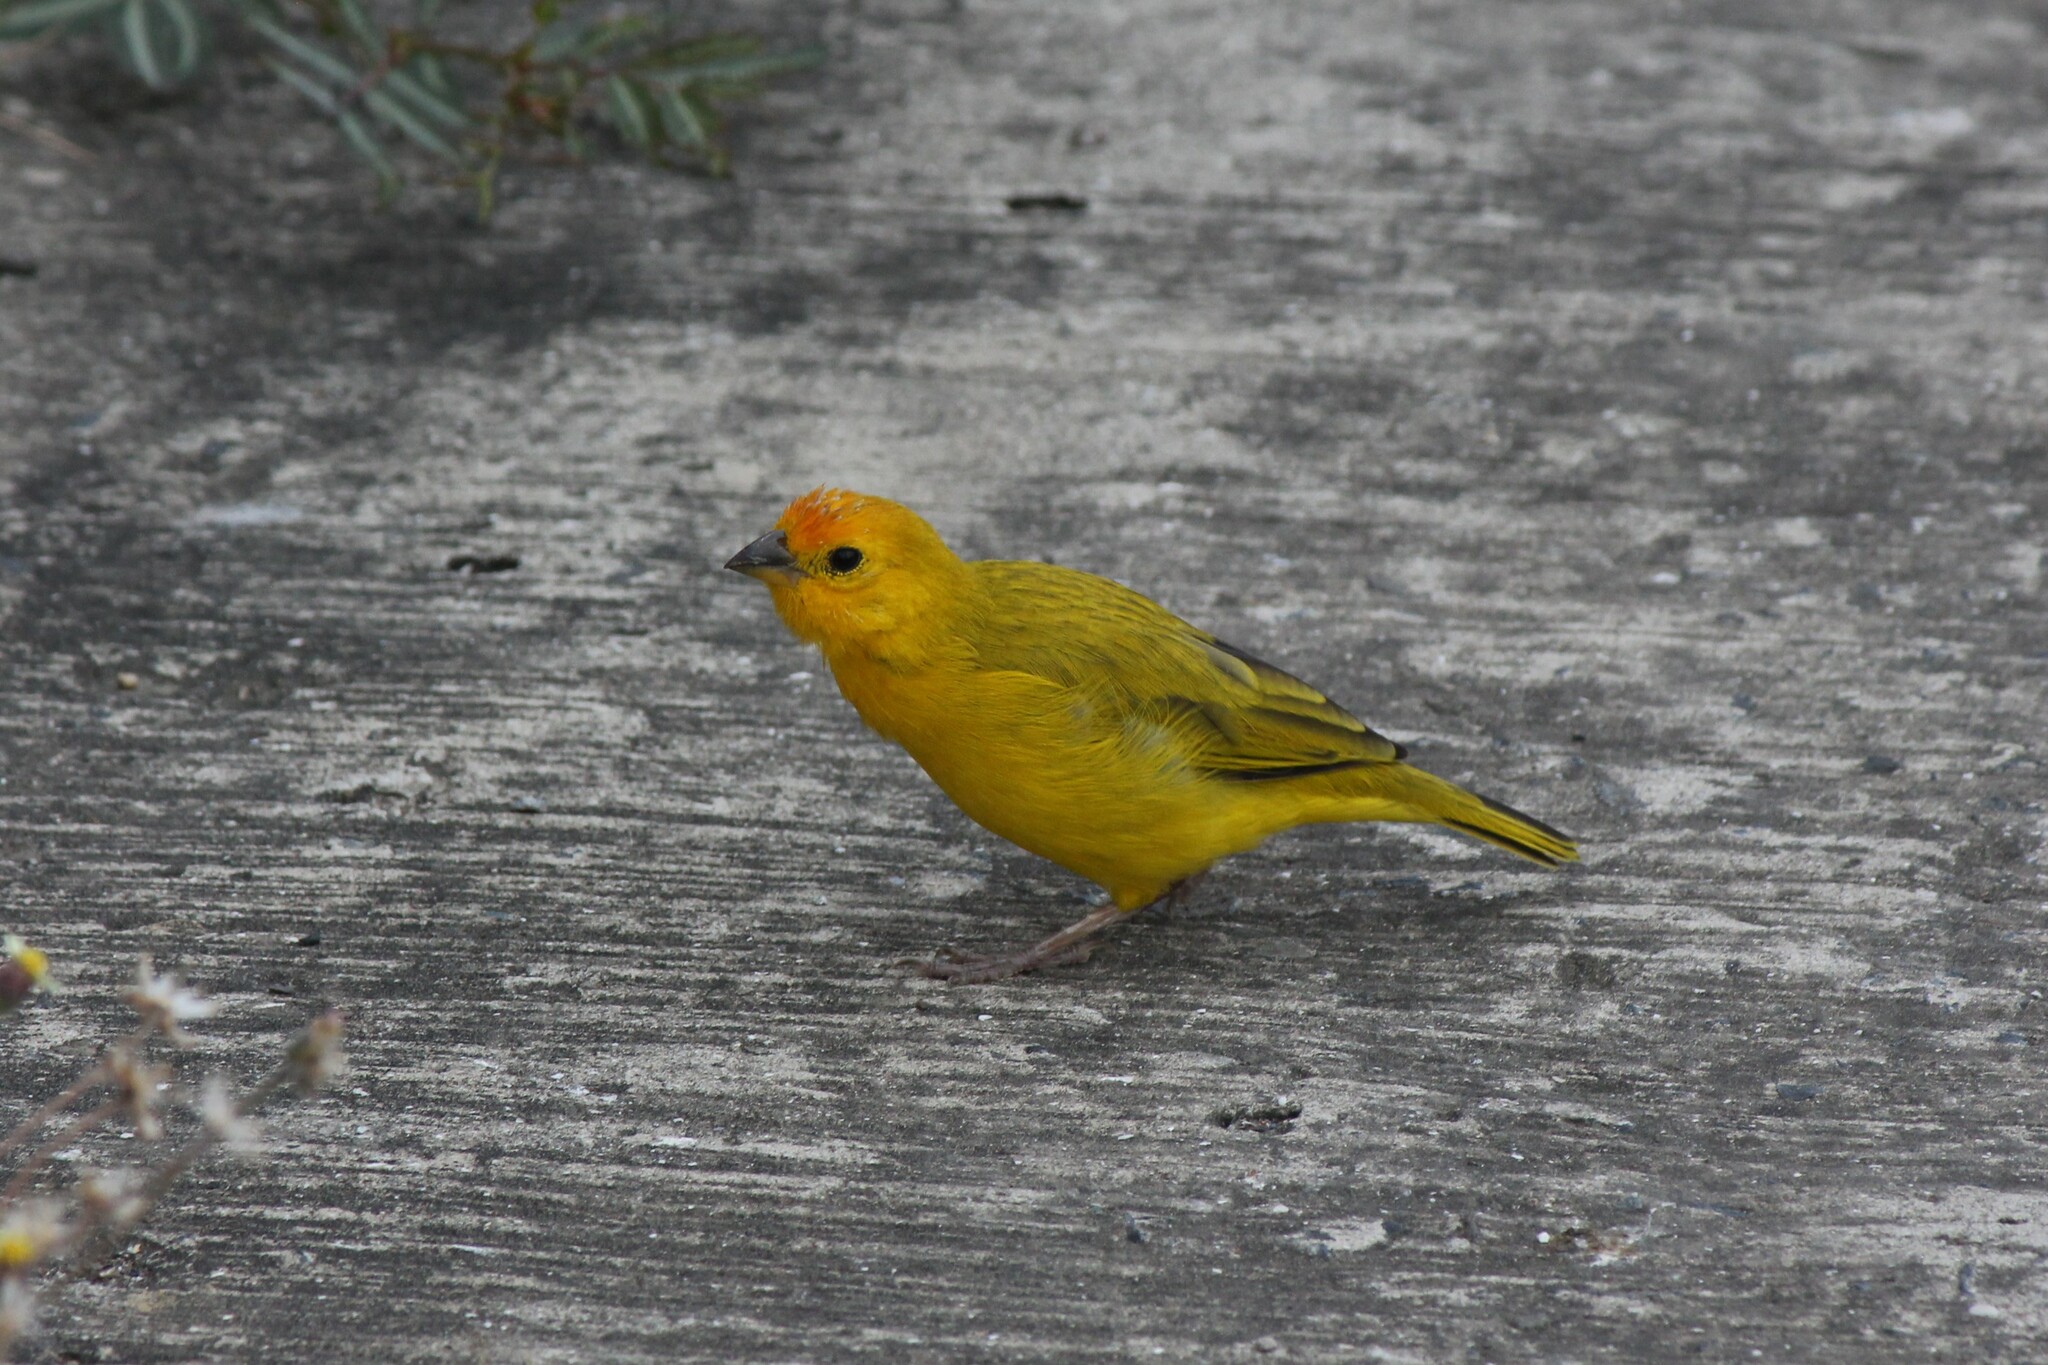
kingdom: Animalia
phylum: Chordata
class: Aves
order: Passeriformes
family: Thraupidae
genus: Sicalis
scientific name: Sicalis flaveola
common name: Saffron finch
